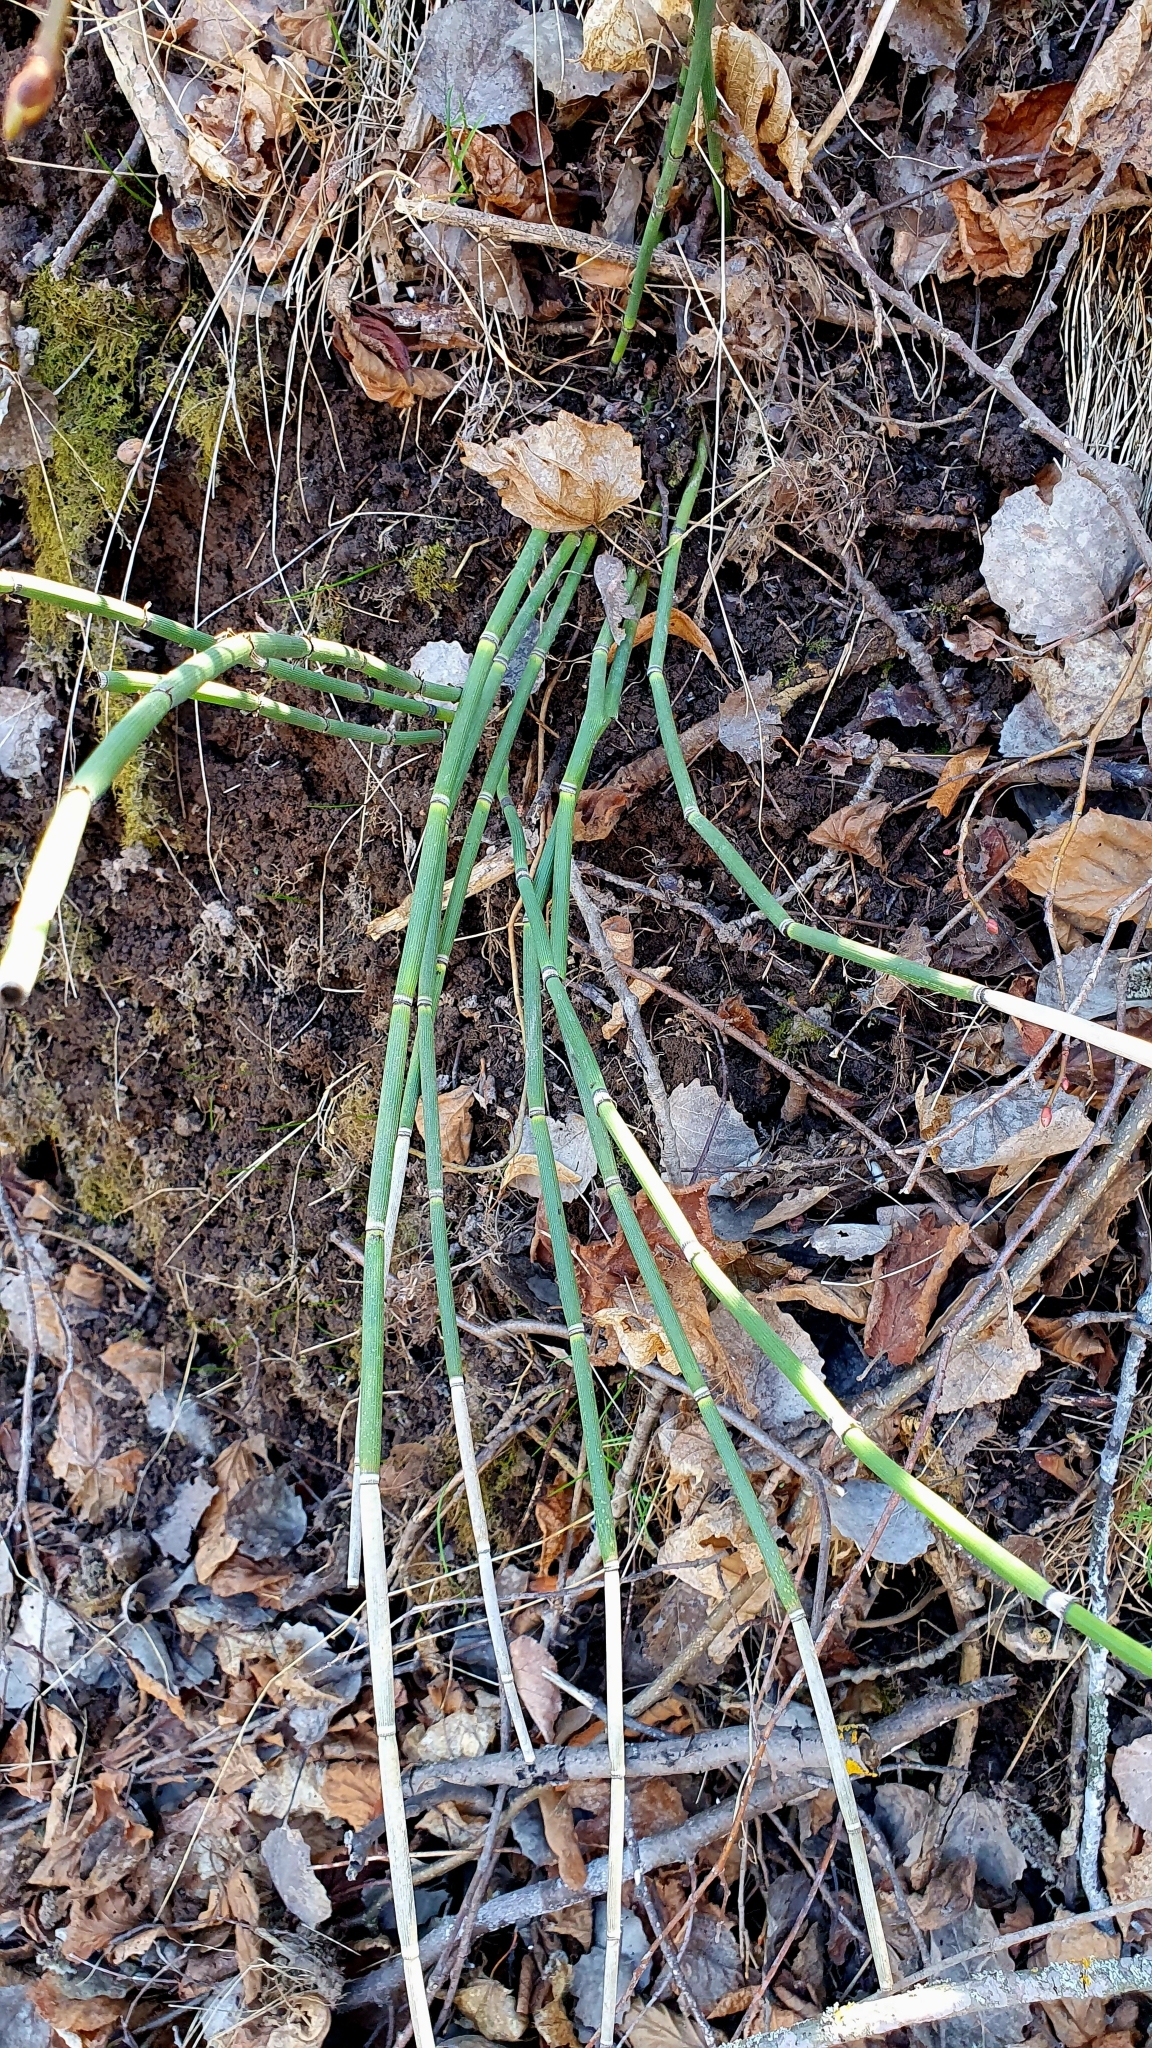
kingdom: Plantae
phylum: Tracheophyta
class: Polypodiopsida
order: Equisetales
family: Equisetaceae
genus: Equisetum
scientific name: Equisetum hyemale
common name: Rough horsetail
